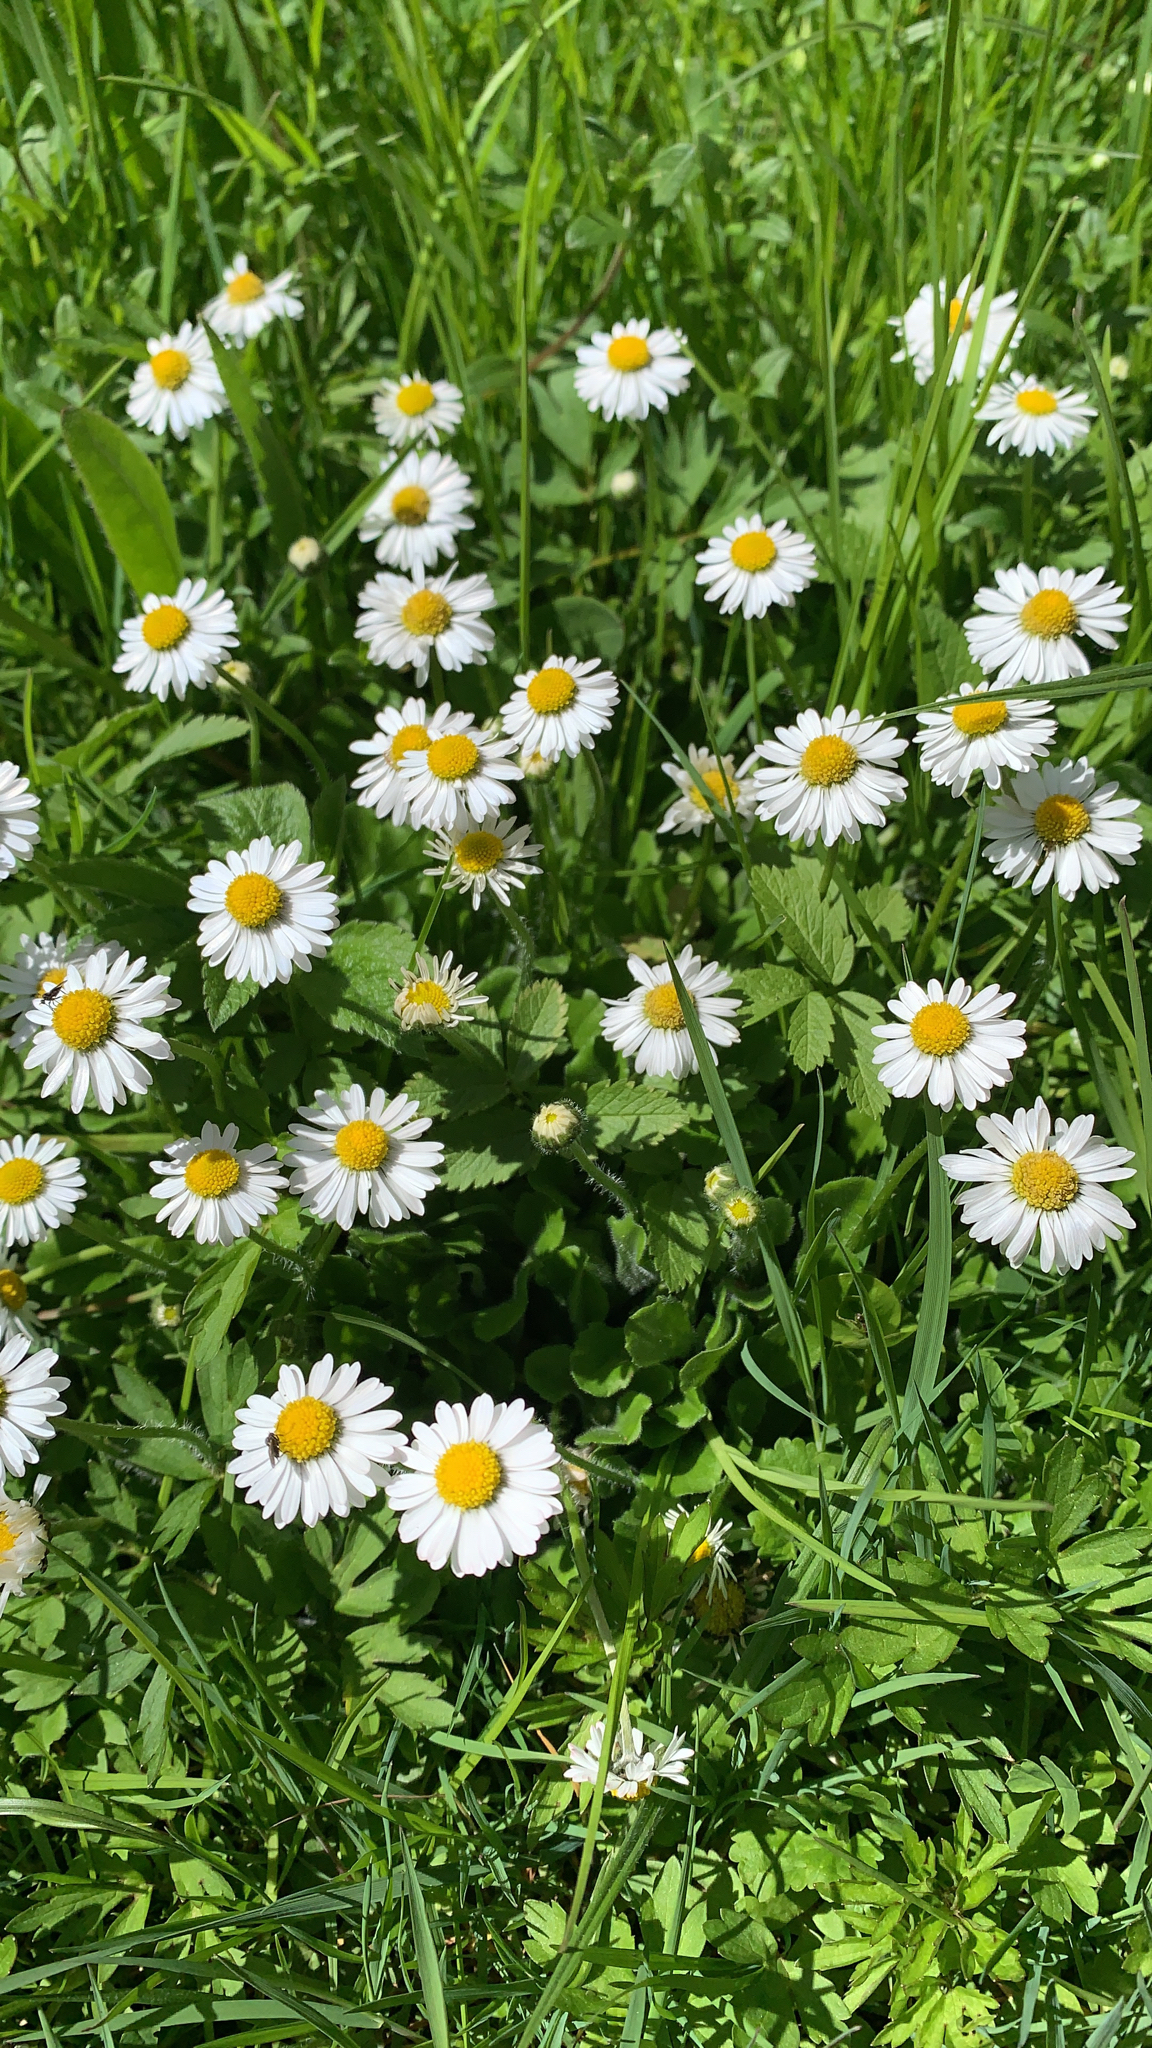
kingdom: Plantae
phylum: Tracheophyta
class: Magnoliopsida
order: Asterales
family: Asteraceae
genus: Bellis
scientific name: Bellis perennis
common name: Lawndaisy
